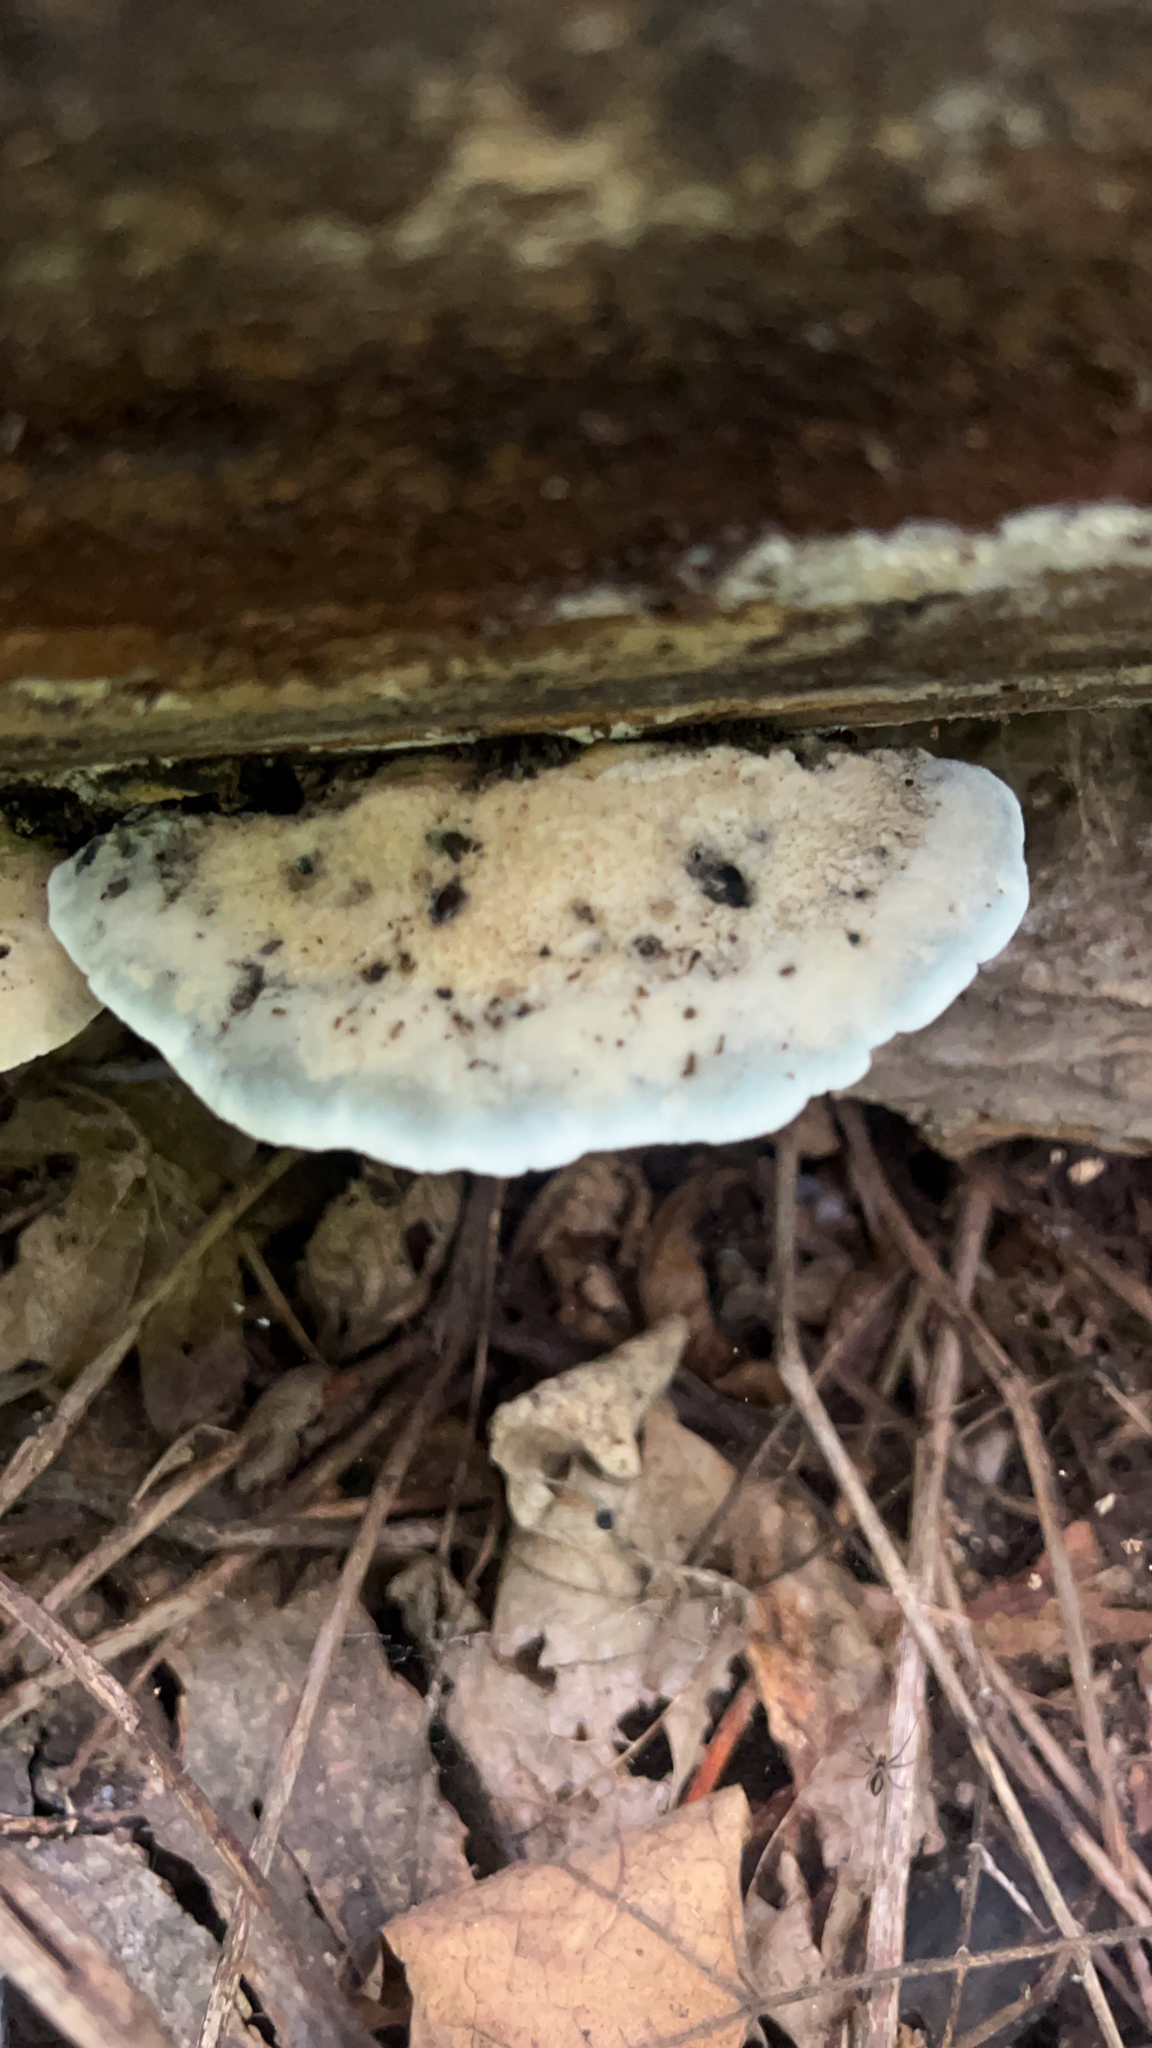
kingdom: Fungi
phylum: Basidiomycota
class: Agaricomycetes
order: Polyporales
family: Polyporaceae
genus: Cyanosporus
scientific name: Cyanosporus caesius
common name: Blue cheese polypore
